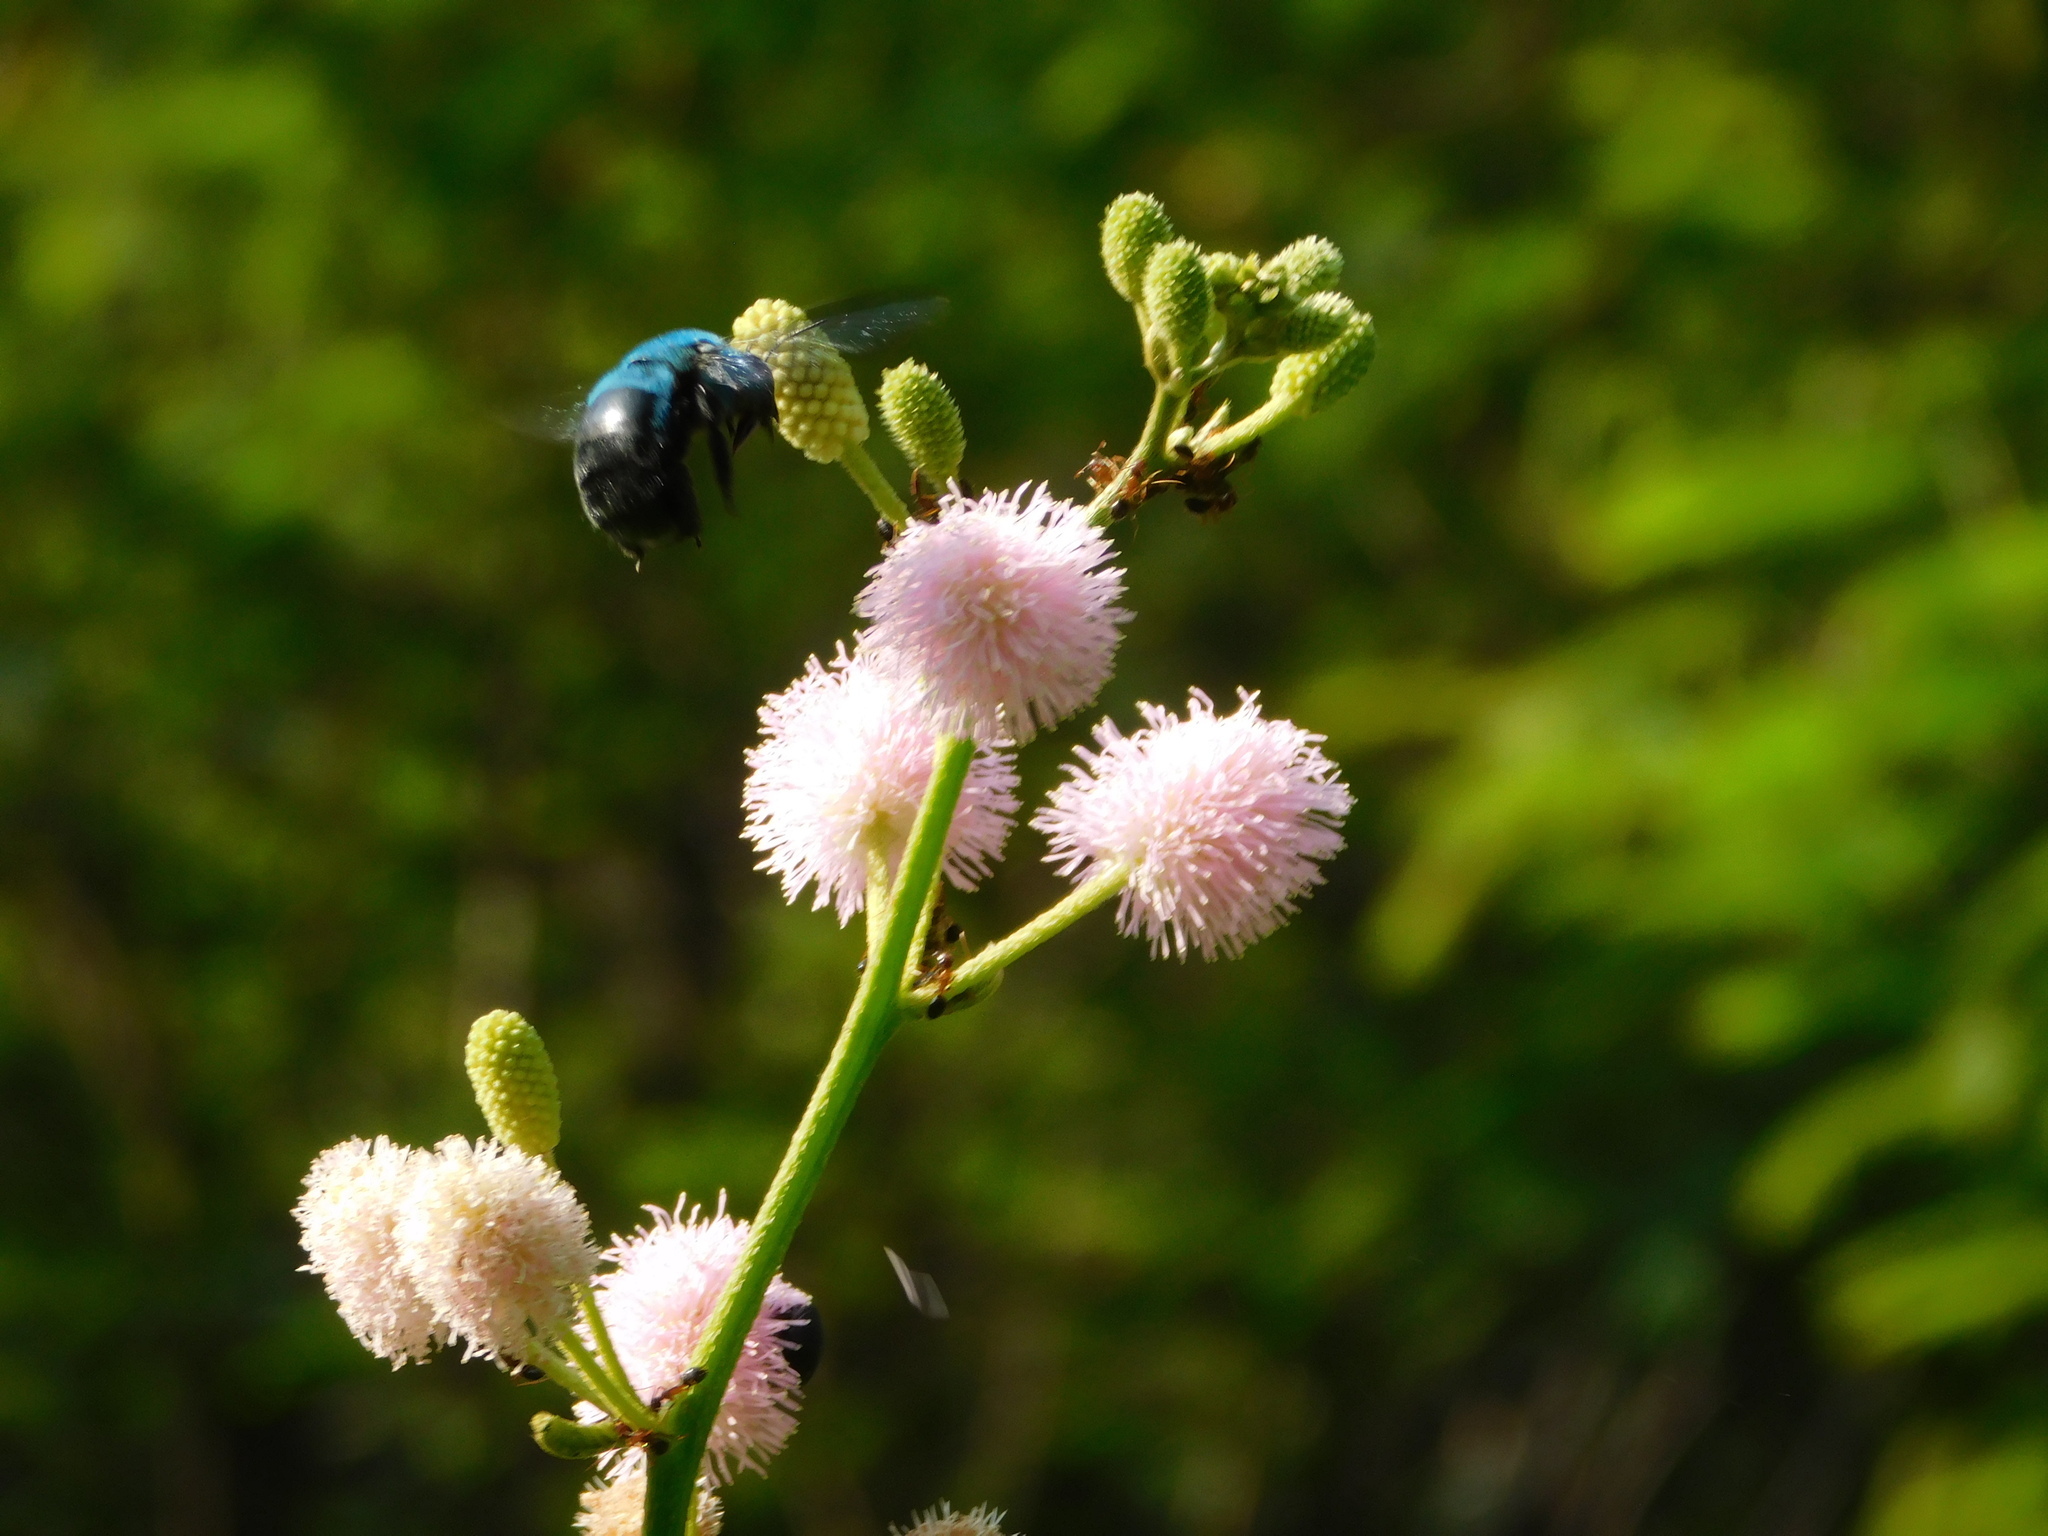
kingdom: Animalia
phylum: Arthropoda
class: Insecta
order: Hymenoptera
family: Apidae
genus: Xylocopa
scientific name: Xylocopa caerulea
